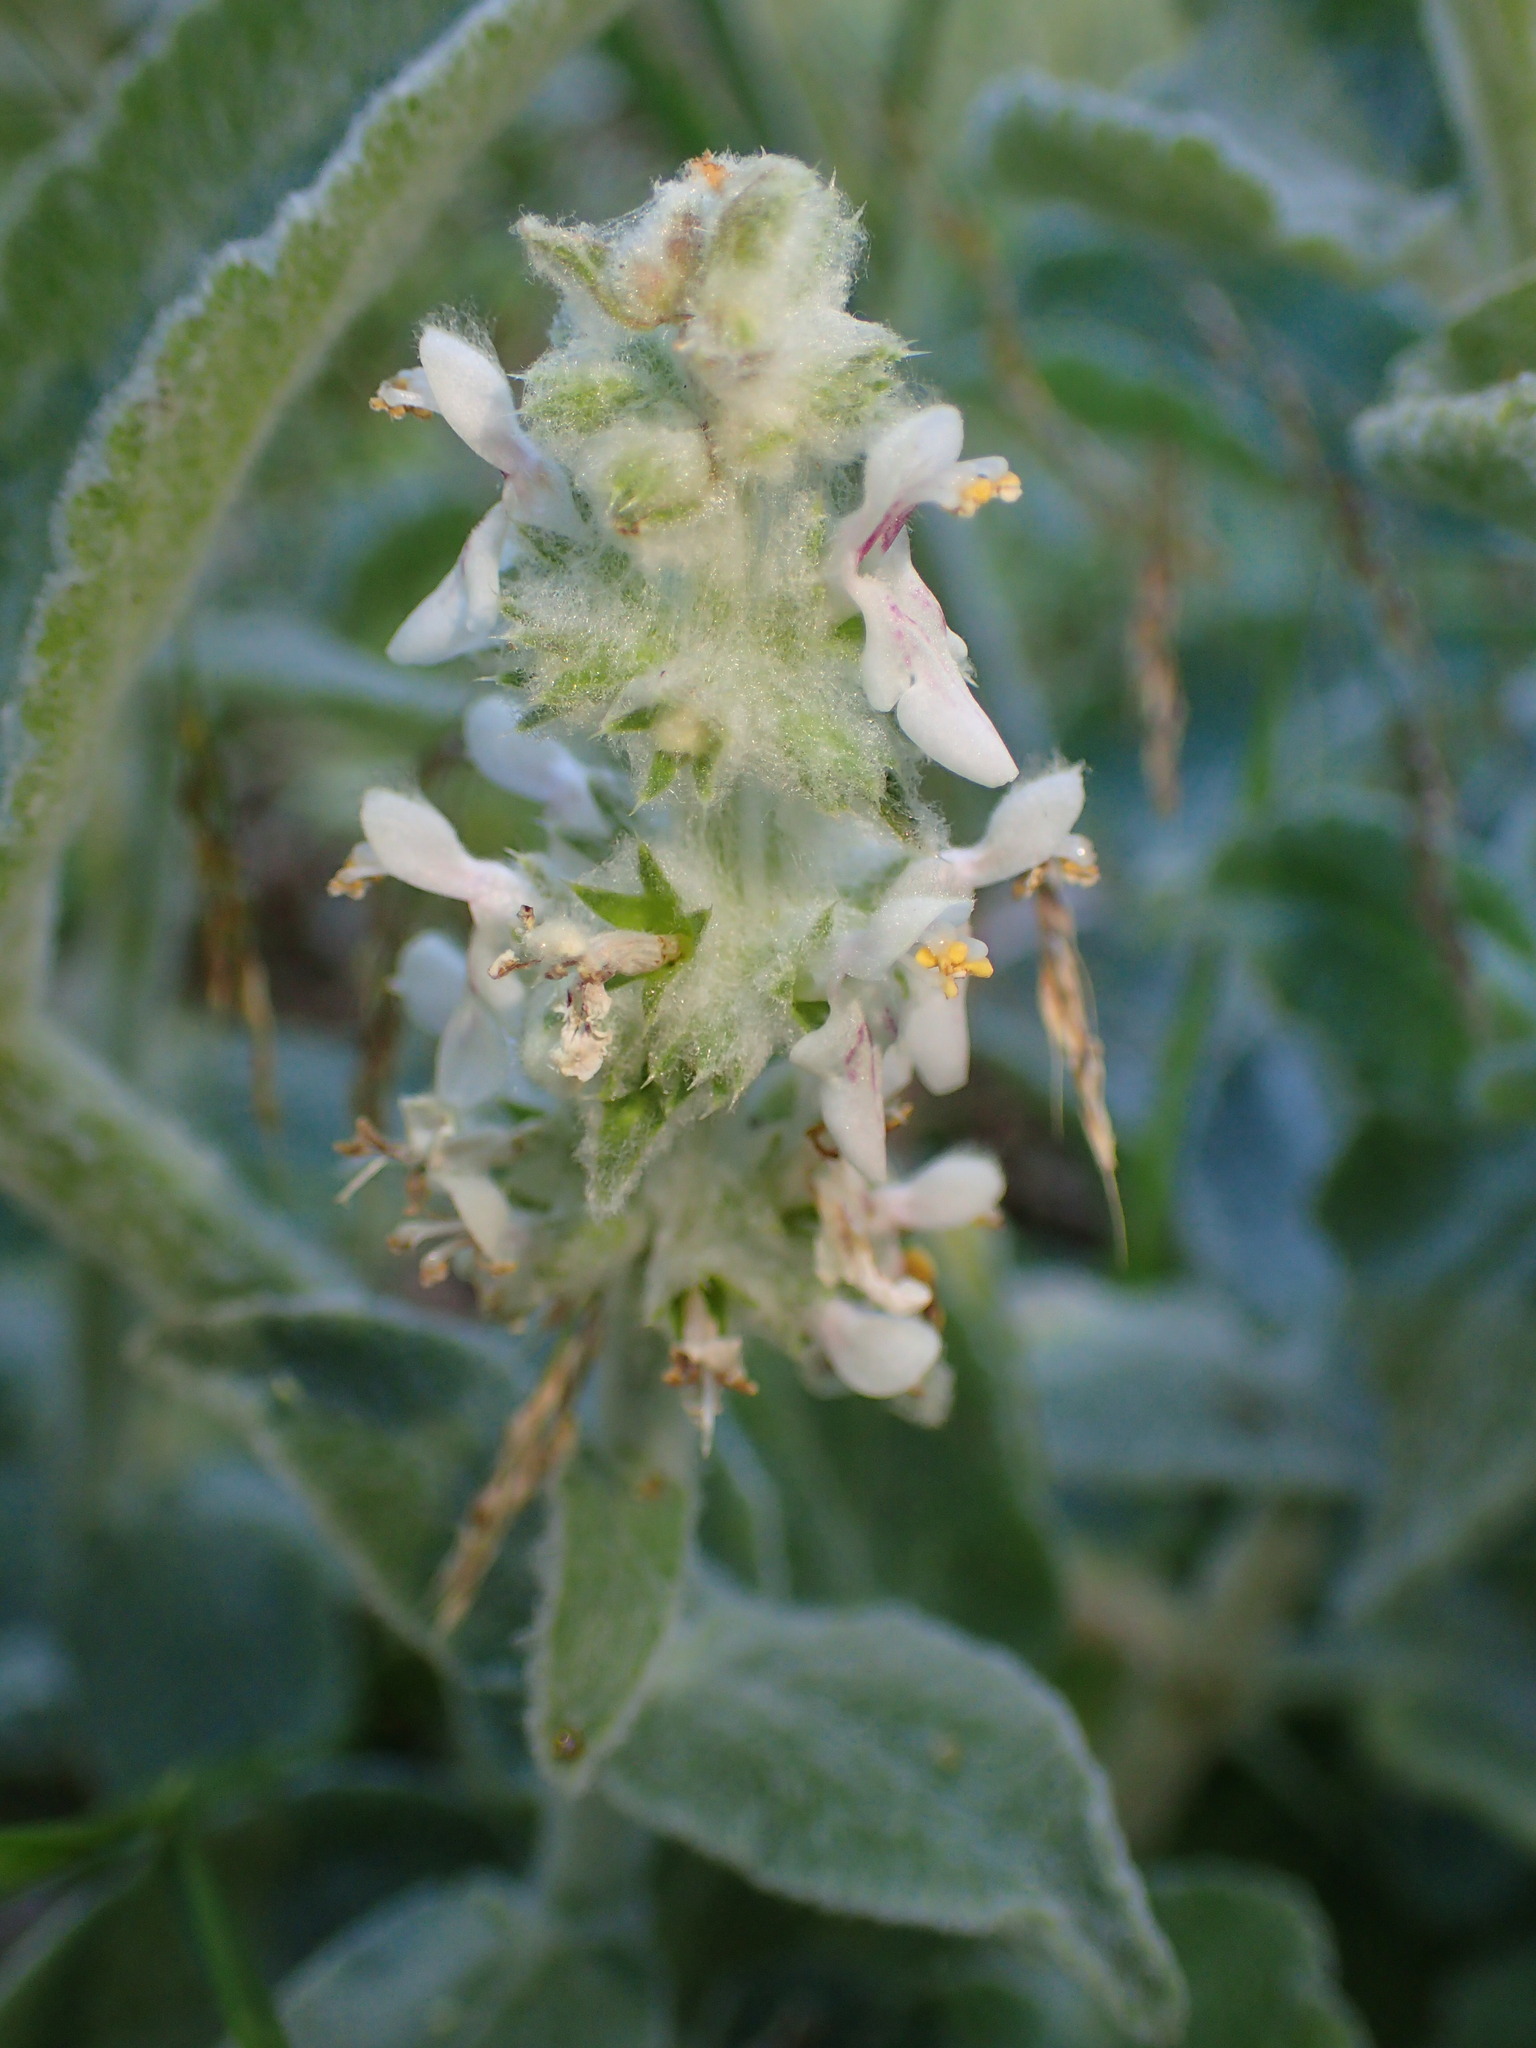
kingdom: Plantae
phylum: Tracheophyta
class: Magnoliopsida
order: Lamiales
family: Lamiaceae
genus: Stachys
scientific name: Stachys albens
